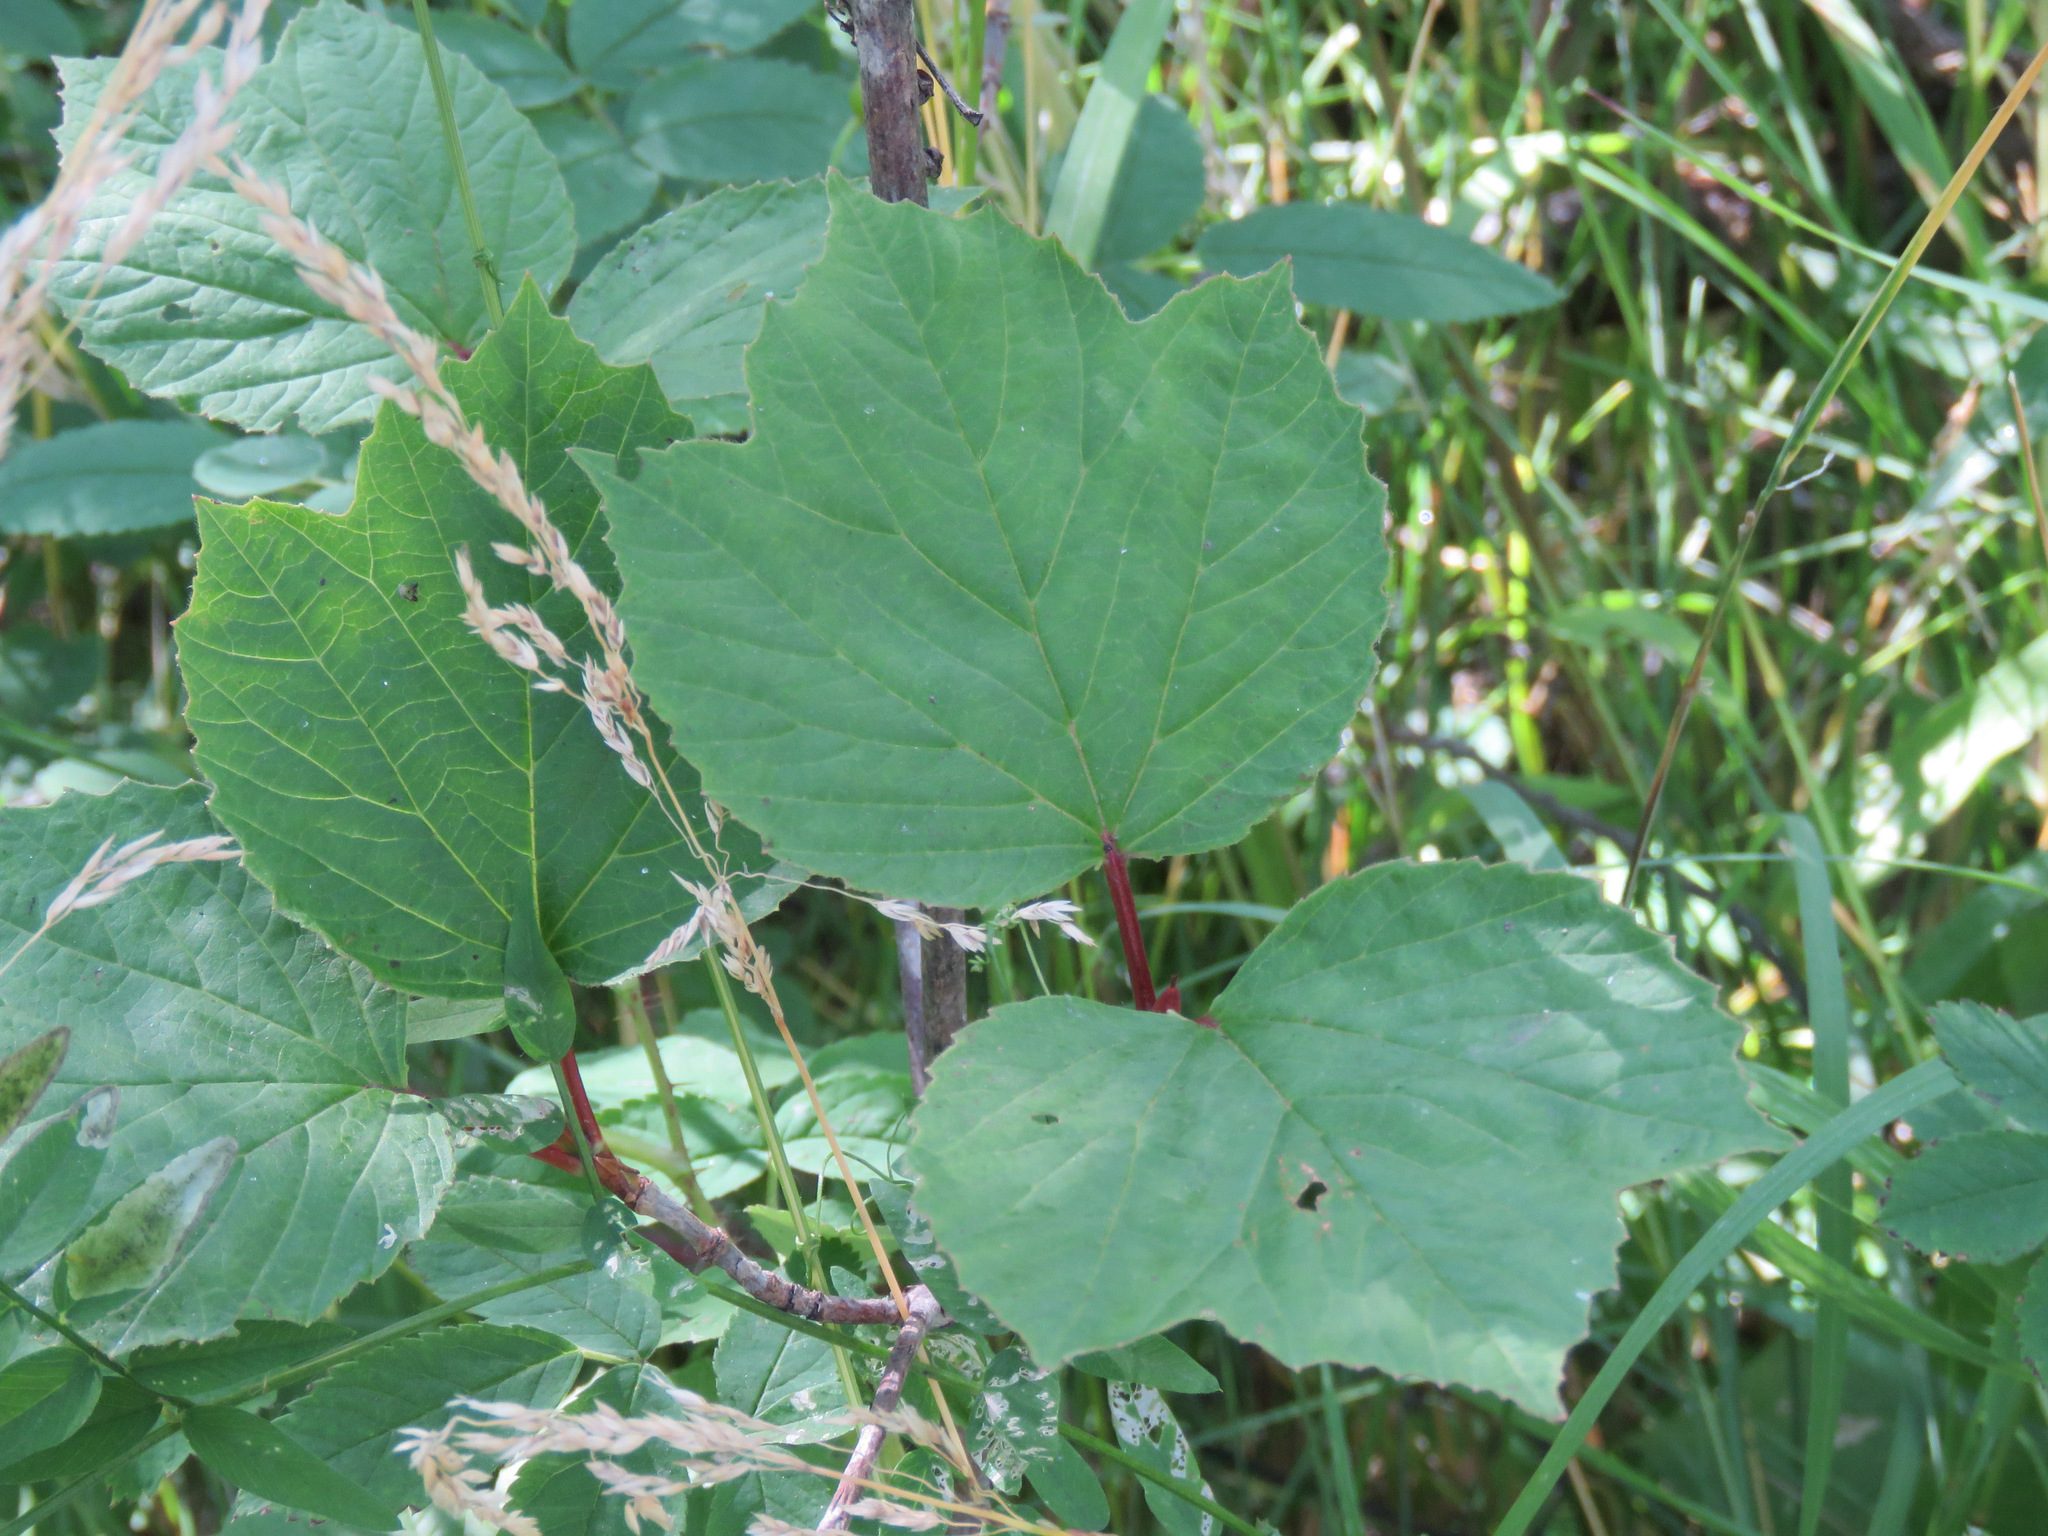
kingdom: Plantae
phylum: Tracheophyta
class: Magnoliopsida
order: Dipsacales
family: Viburnaceae
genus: Viburnum
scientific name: Viburnum edule
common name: Mooseberry
